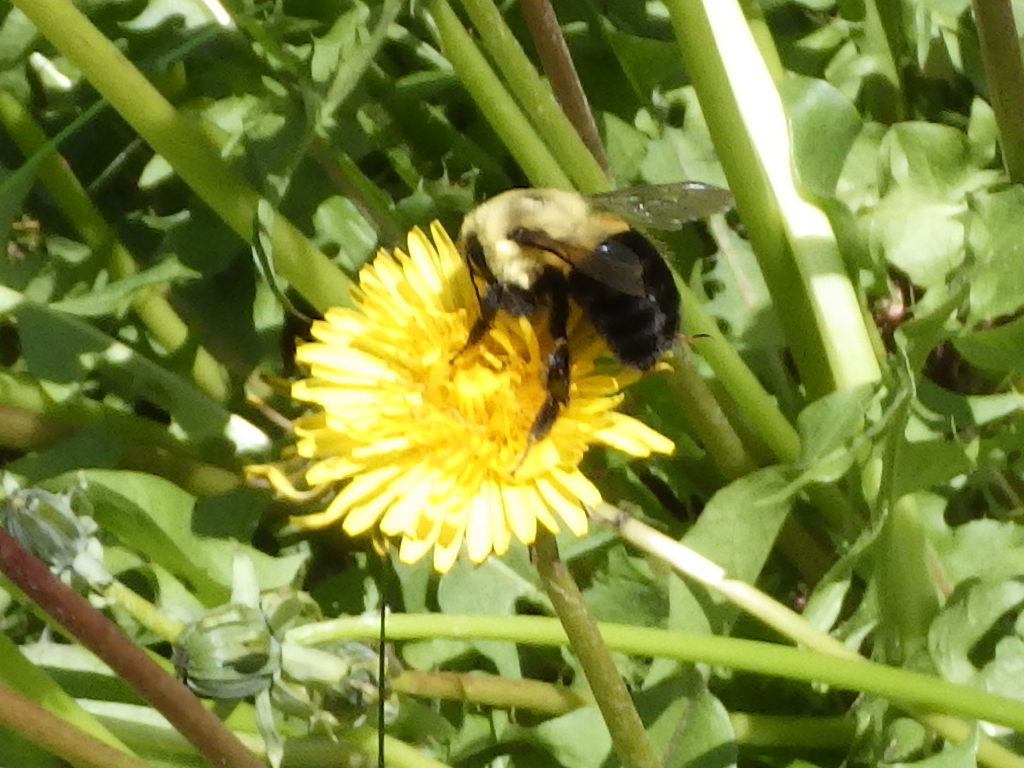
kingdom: Animalia
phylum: Arthropoda
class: Insecta
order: Hymenoptera
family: Apidae
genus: Bombus
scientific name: Bombus impatiens
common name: Common eastern bumble bee
